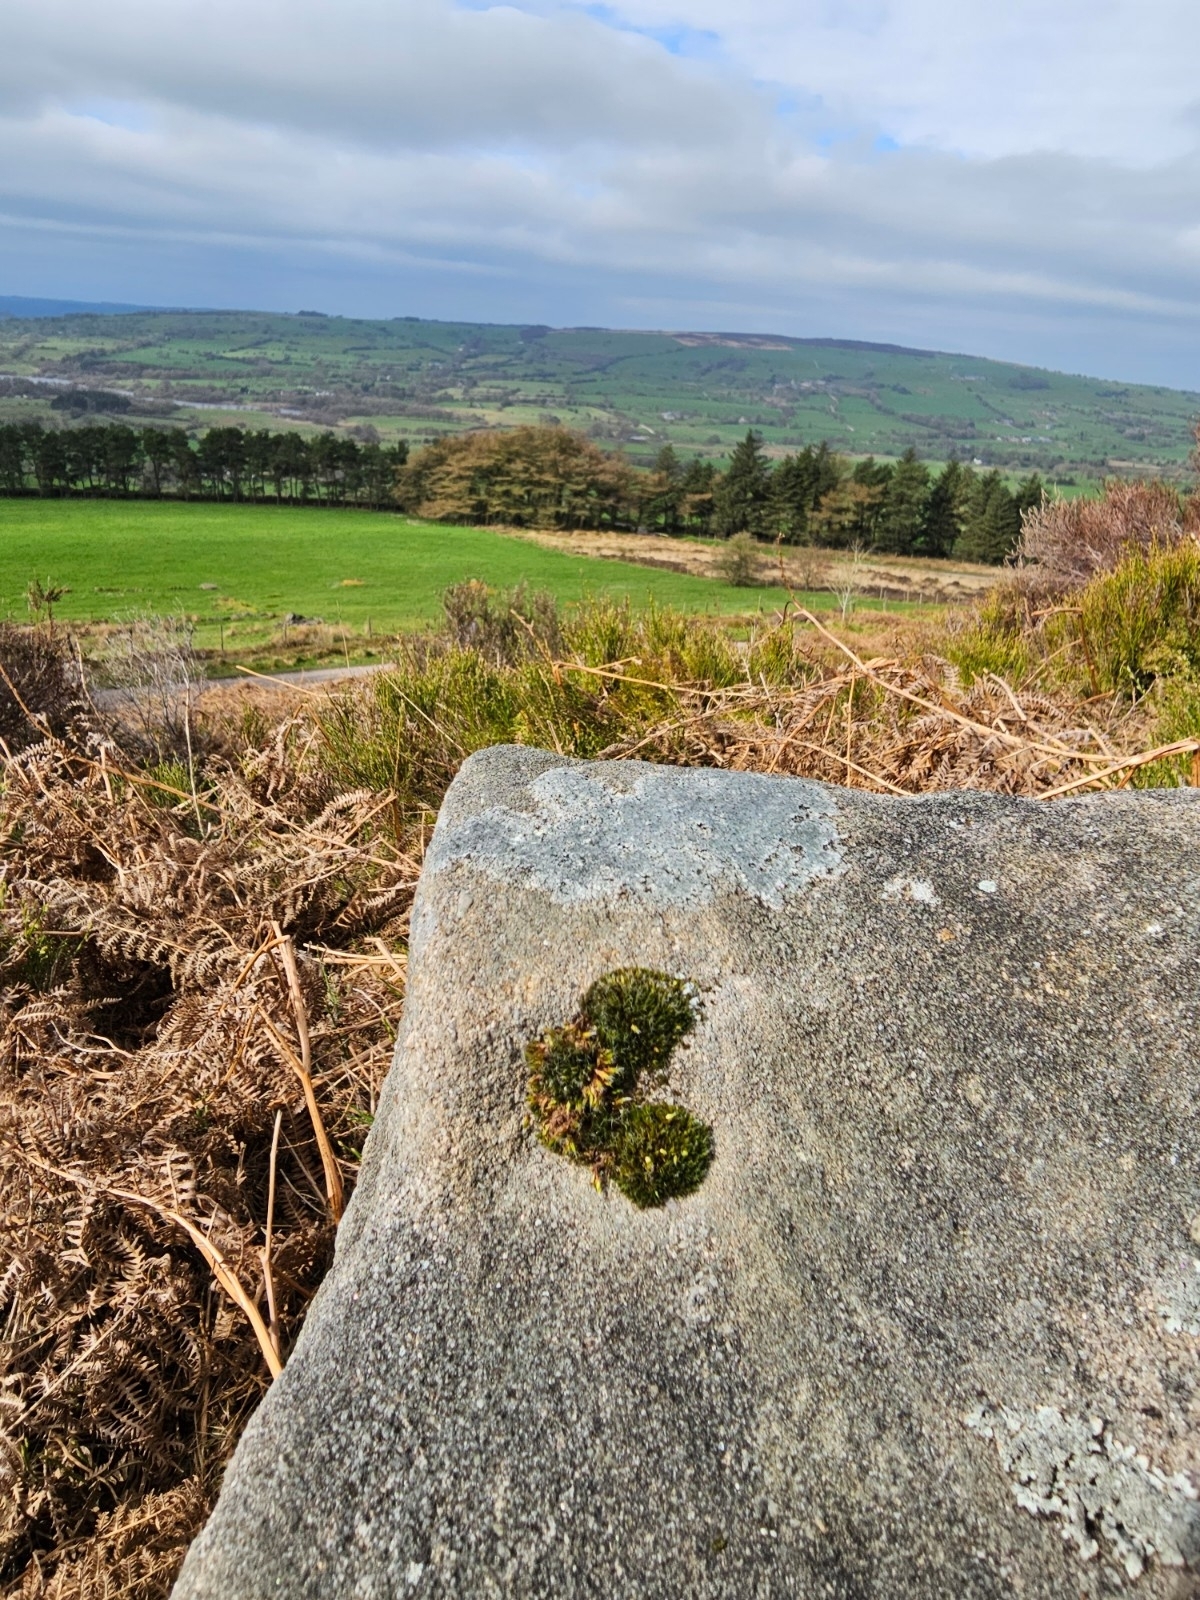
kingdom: Plantae
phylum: Bryophyta
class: Bryopsida
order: Dicranales
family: Leucobryaceae
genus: Campylopus
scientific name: Campylopus introflexus
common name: Heath star moss
